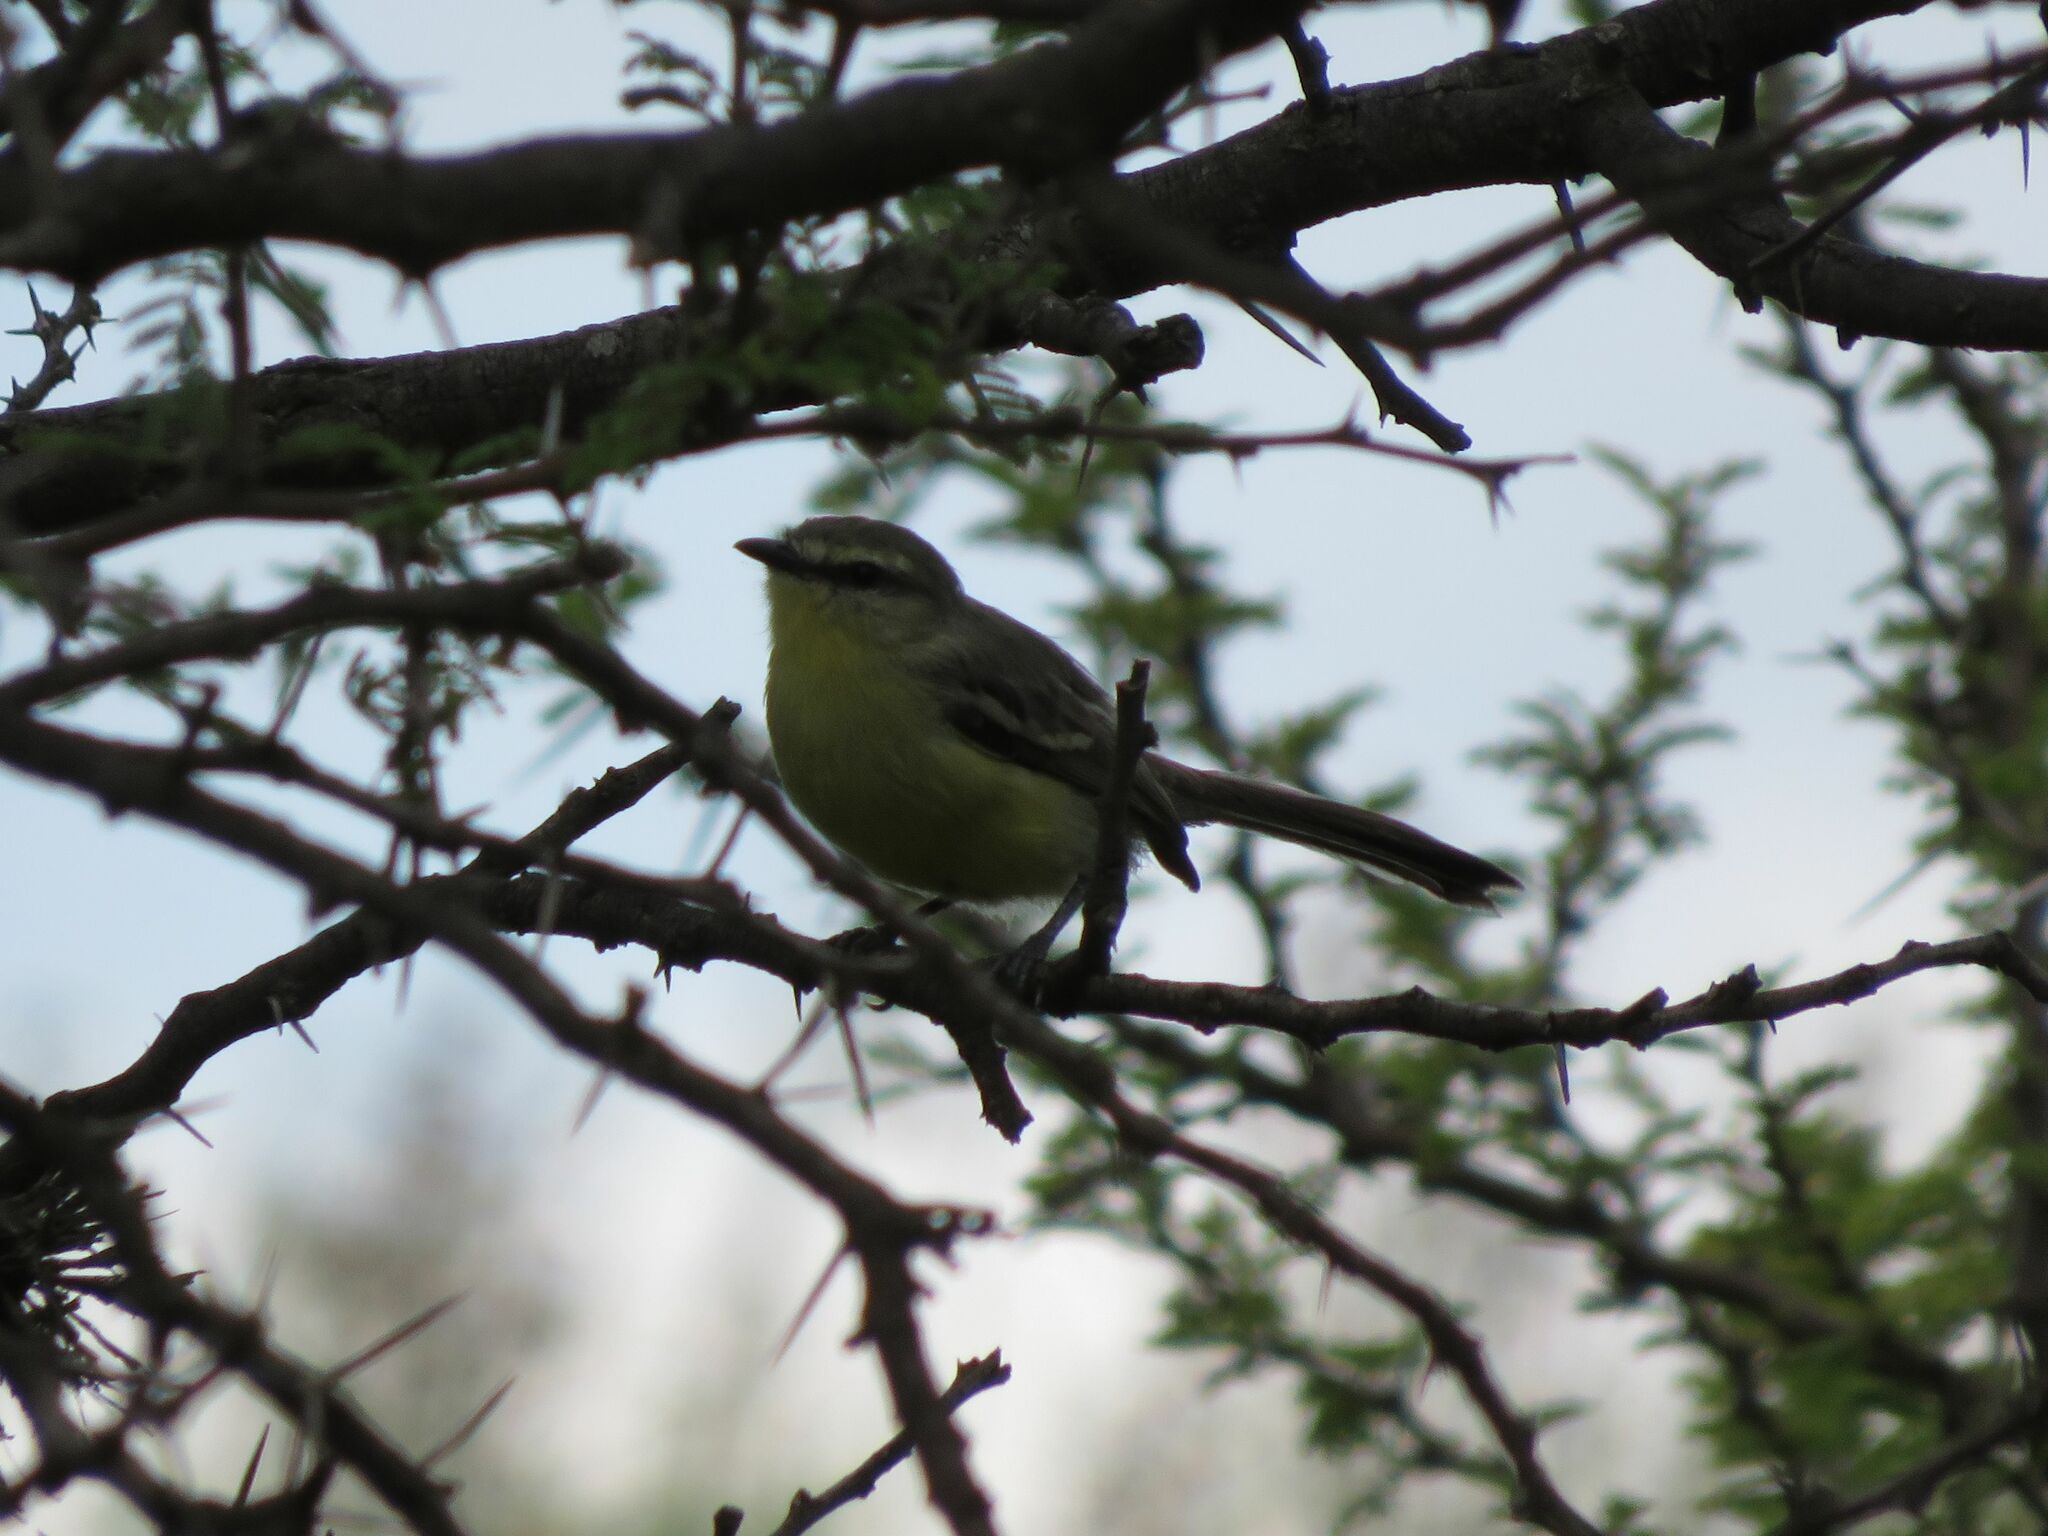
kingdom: Animalia
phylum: Chordata
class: Aves
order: Passeriformes
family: Tyrannidae
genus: Stigmatura
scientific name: Stigmatura budytoides
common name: Greater wagtail-tyrant
